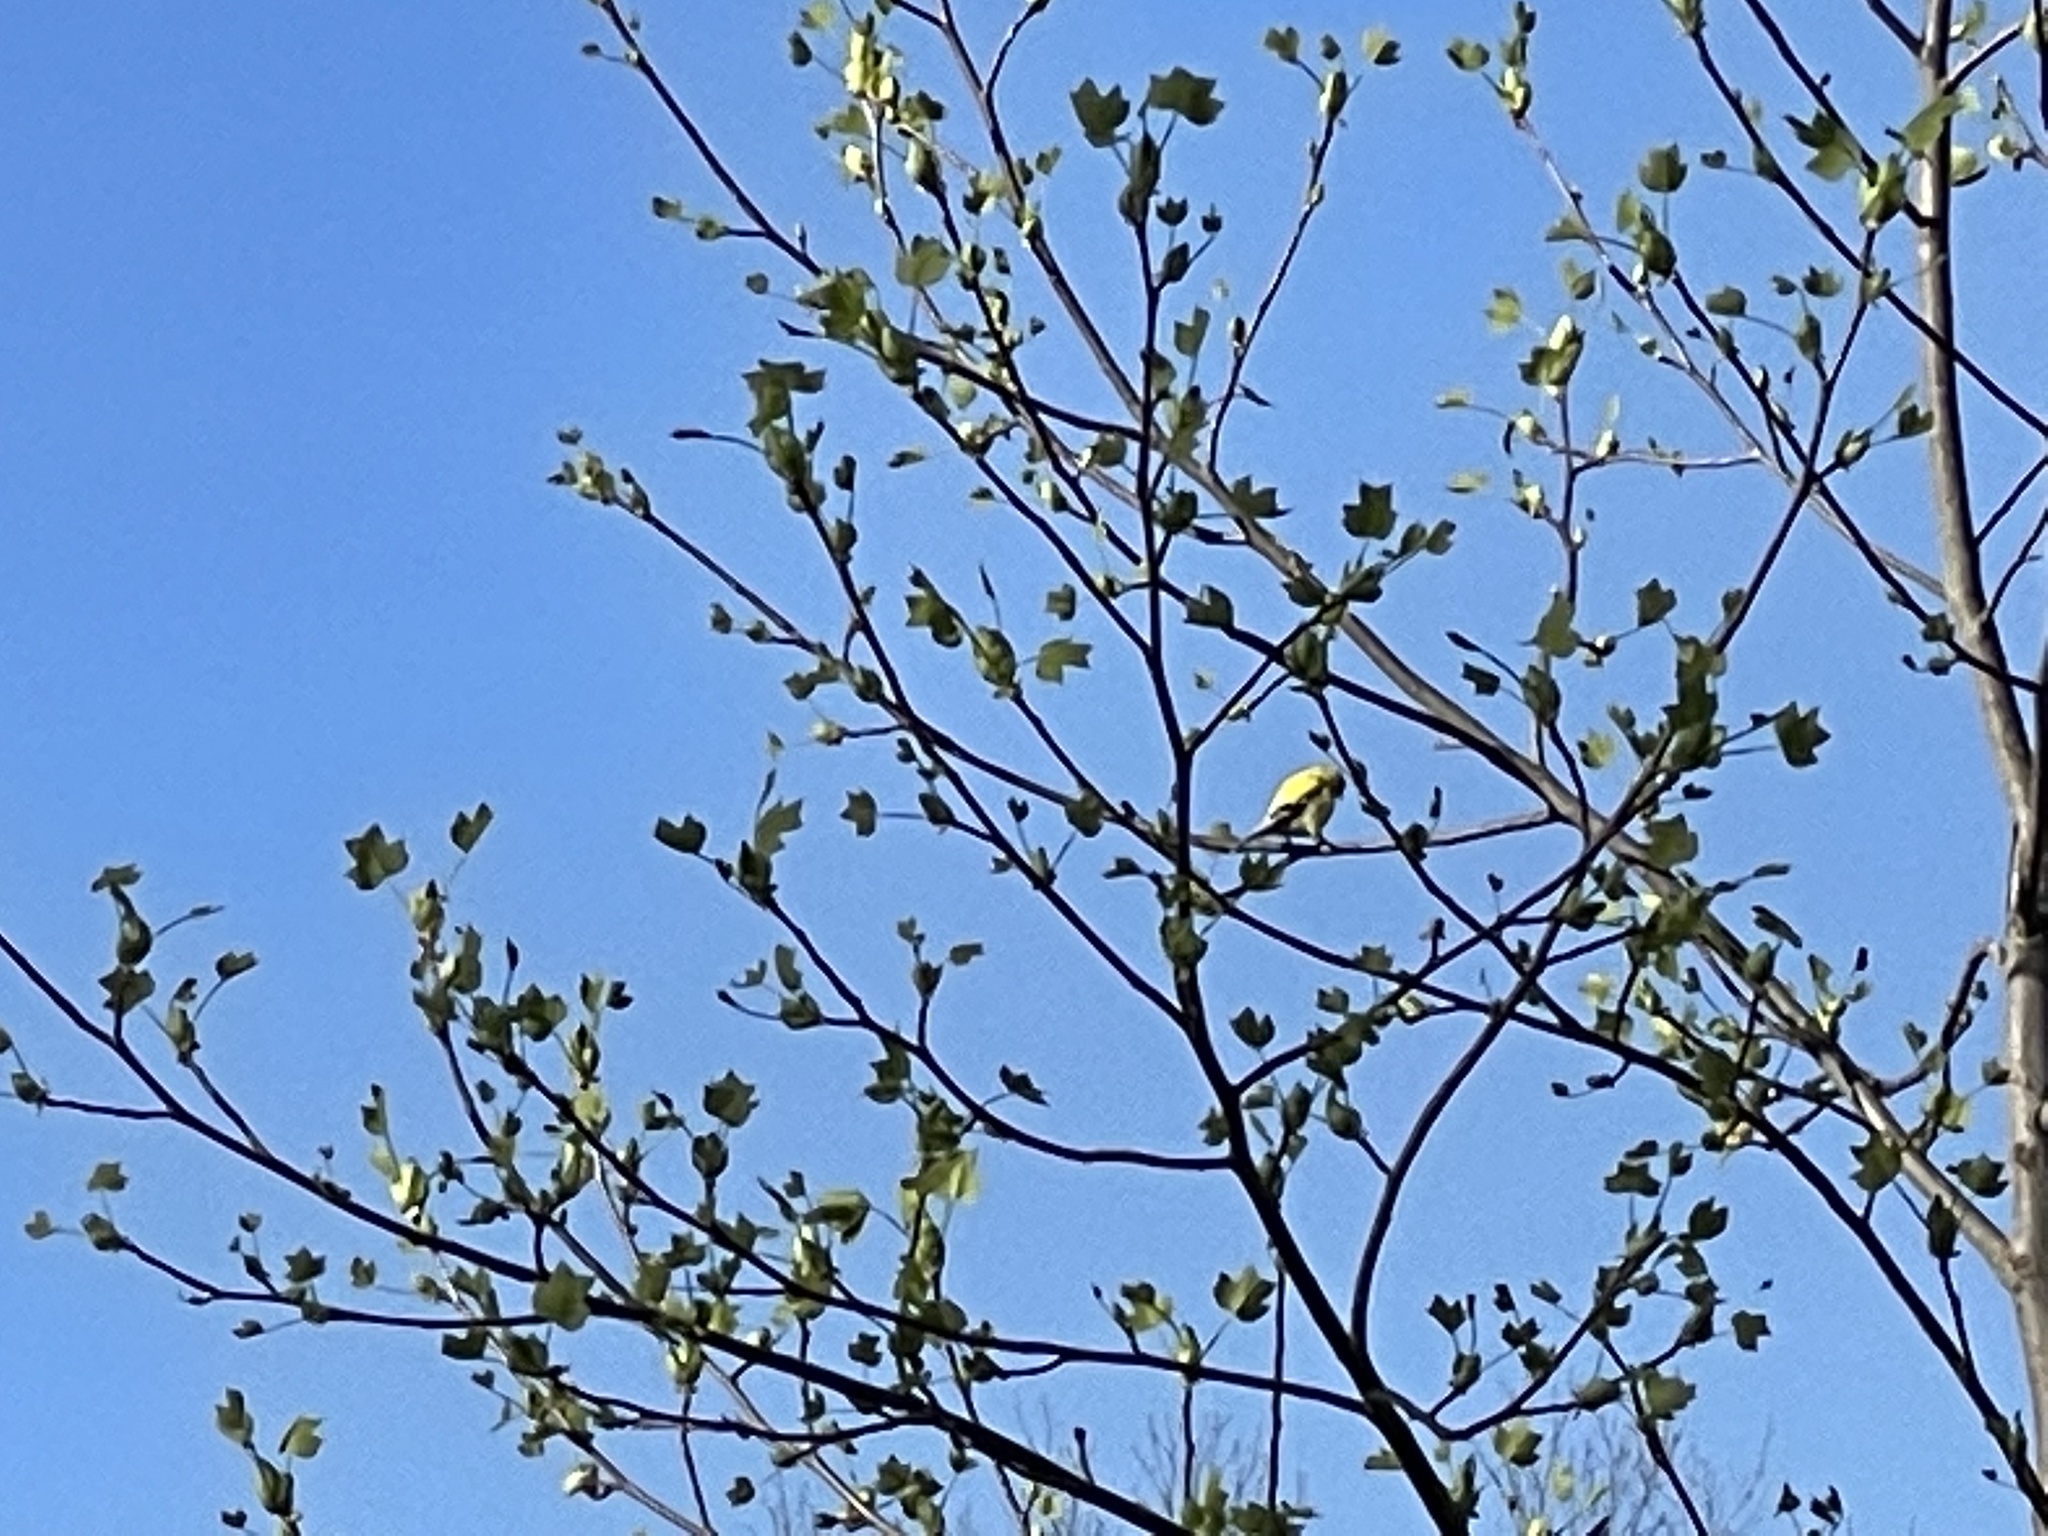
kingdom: Animalia
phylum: Chordata
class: Aves
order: Passeriformes
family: Fringillidae
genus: Spinus
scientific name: Spinus tristis
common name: American goldfinch
